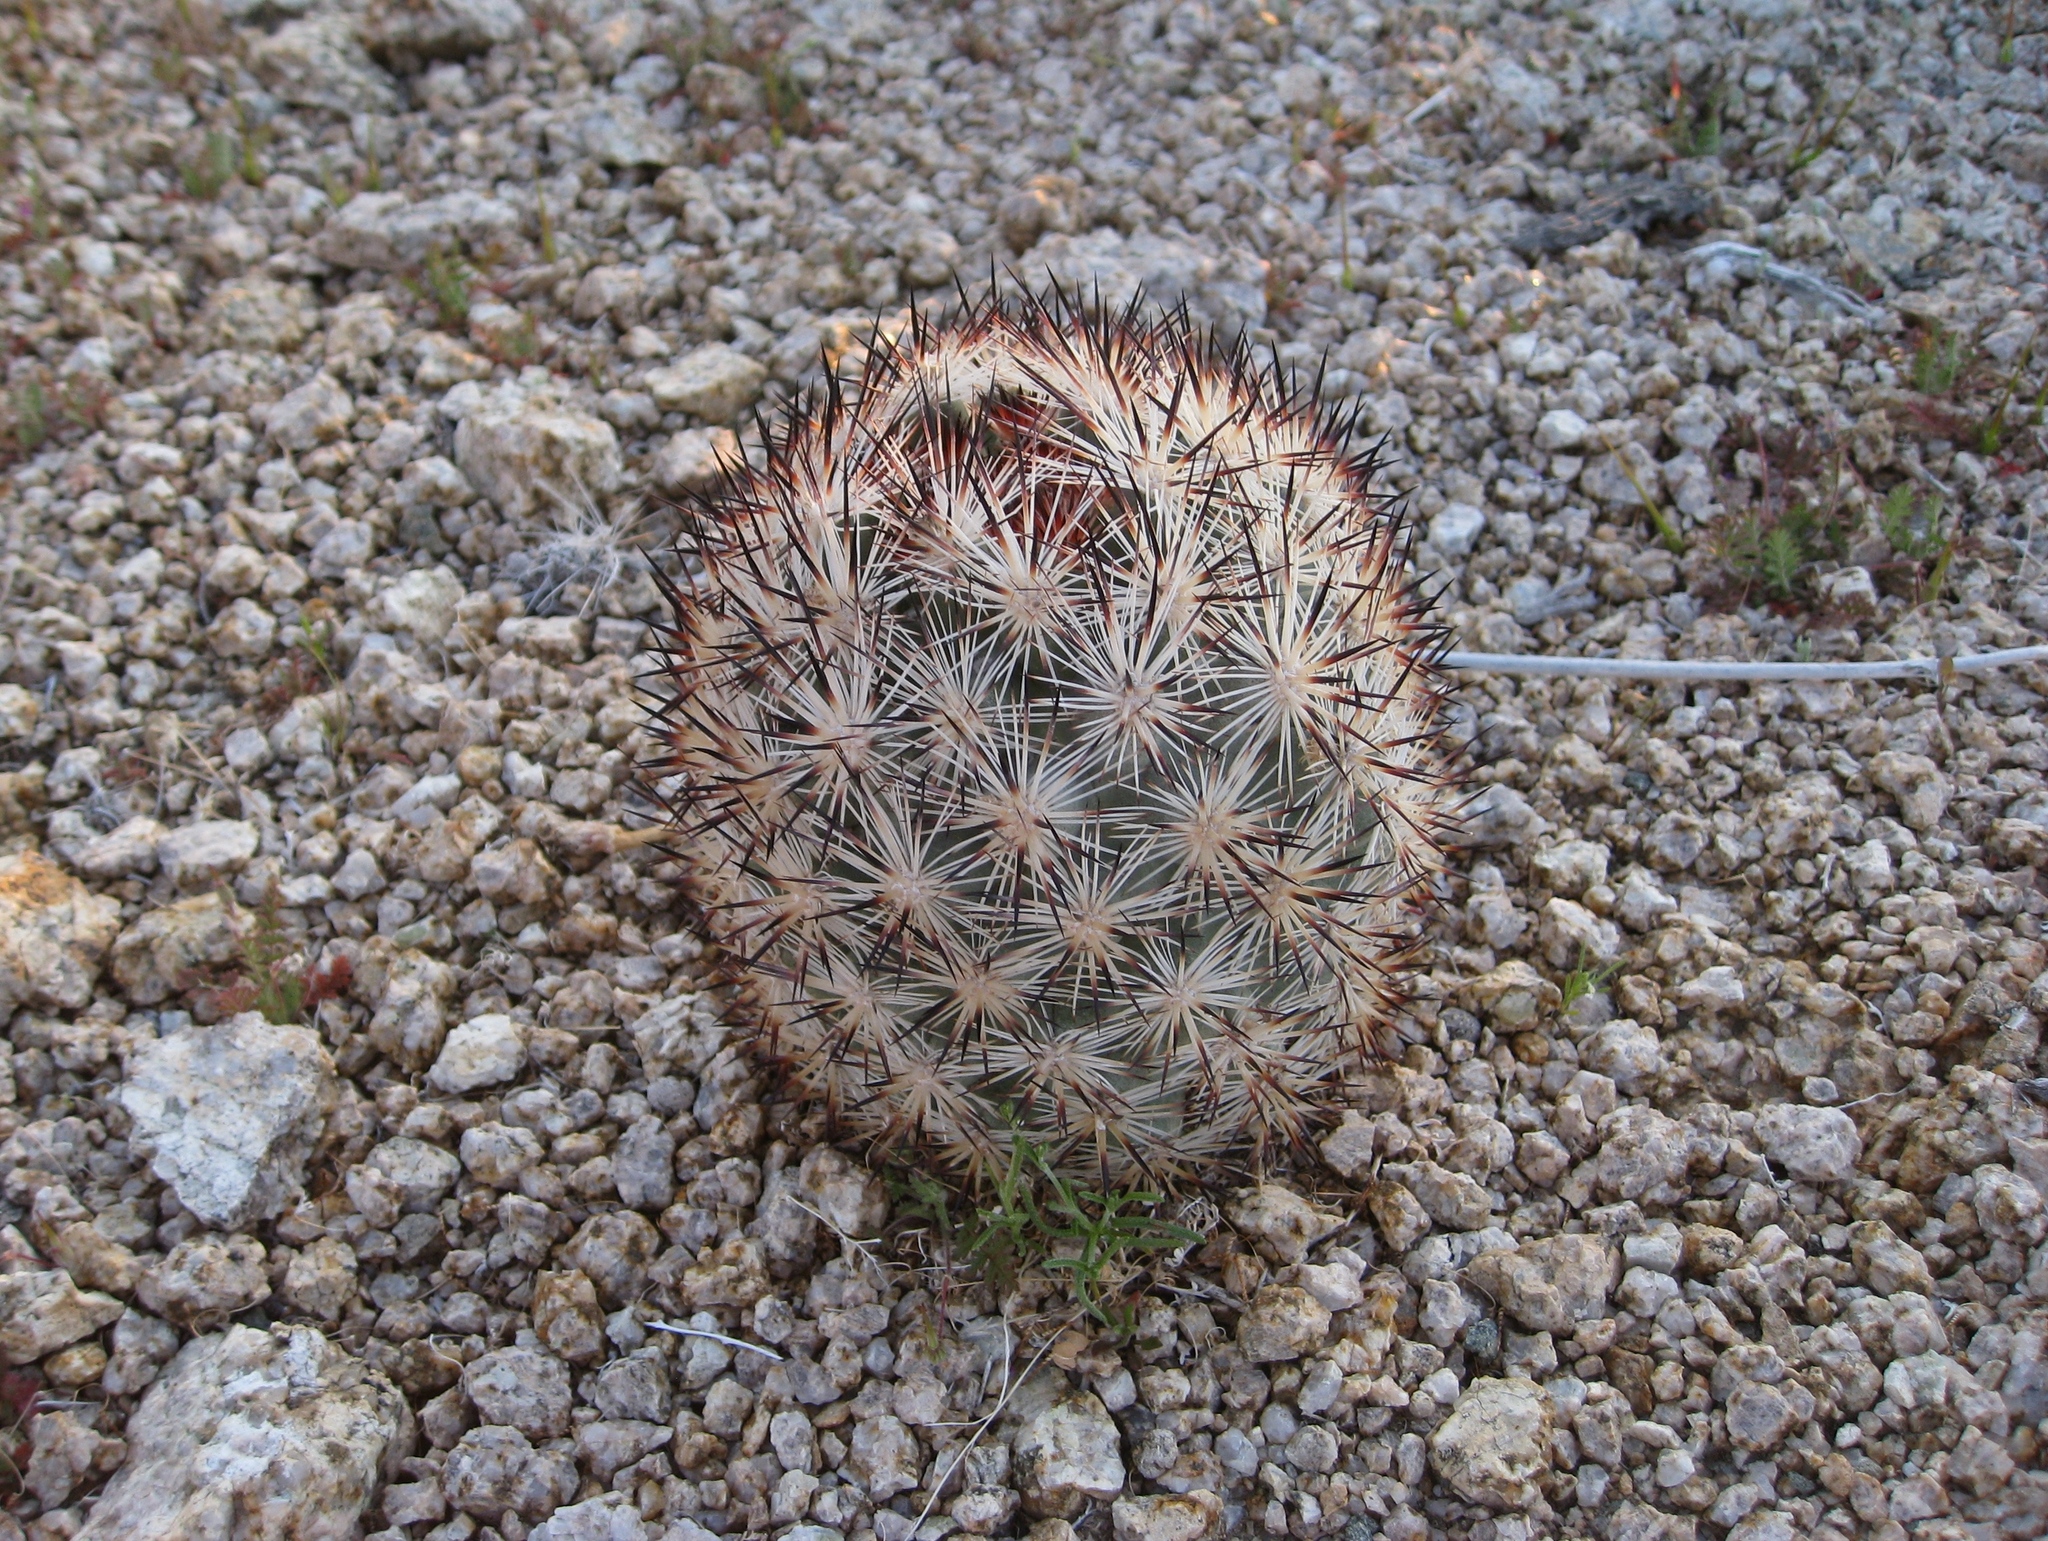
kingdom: Plantae
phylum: Tracheophyta
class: Magnoliopsida
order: Caryophyllales
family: Cactaceae
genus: Pelecyphora
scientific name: Pelecyphora alversonii
